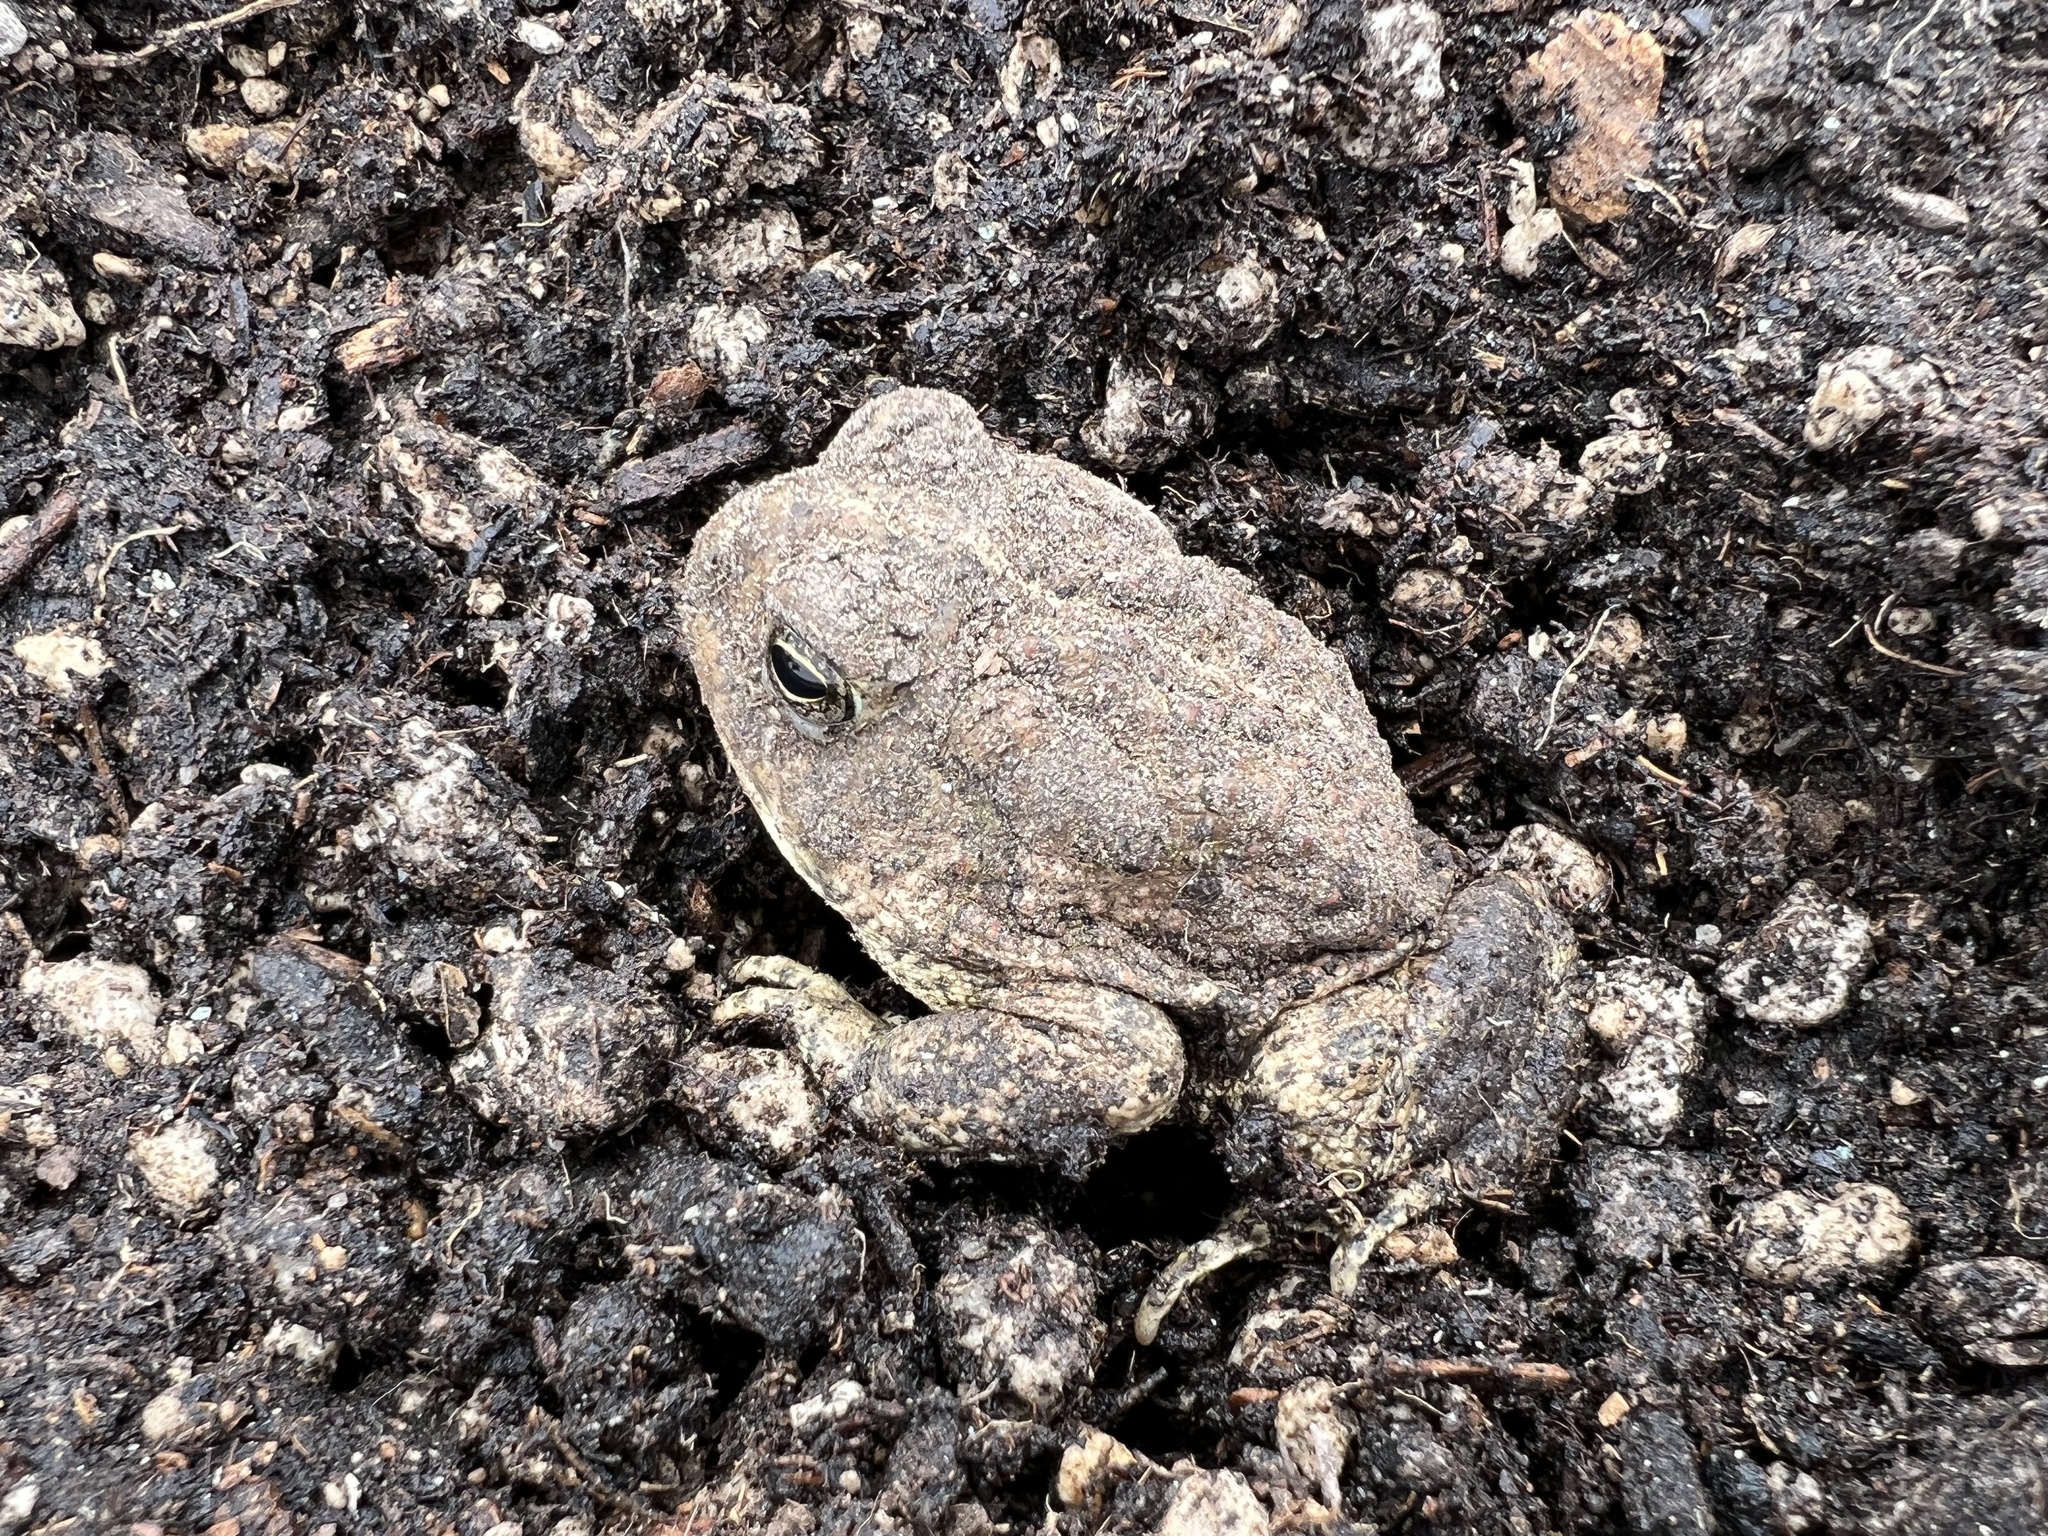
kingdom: Animalia
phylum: Chordata
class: Amphibia
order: Anura
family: Bufonidae
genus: Anaxyrus
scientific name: Anaxyrus woodhousii
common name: Woodhouse's toad
